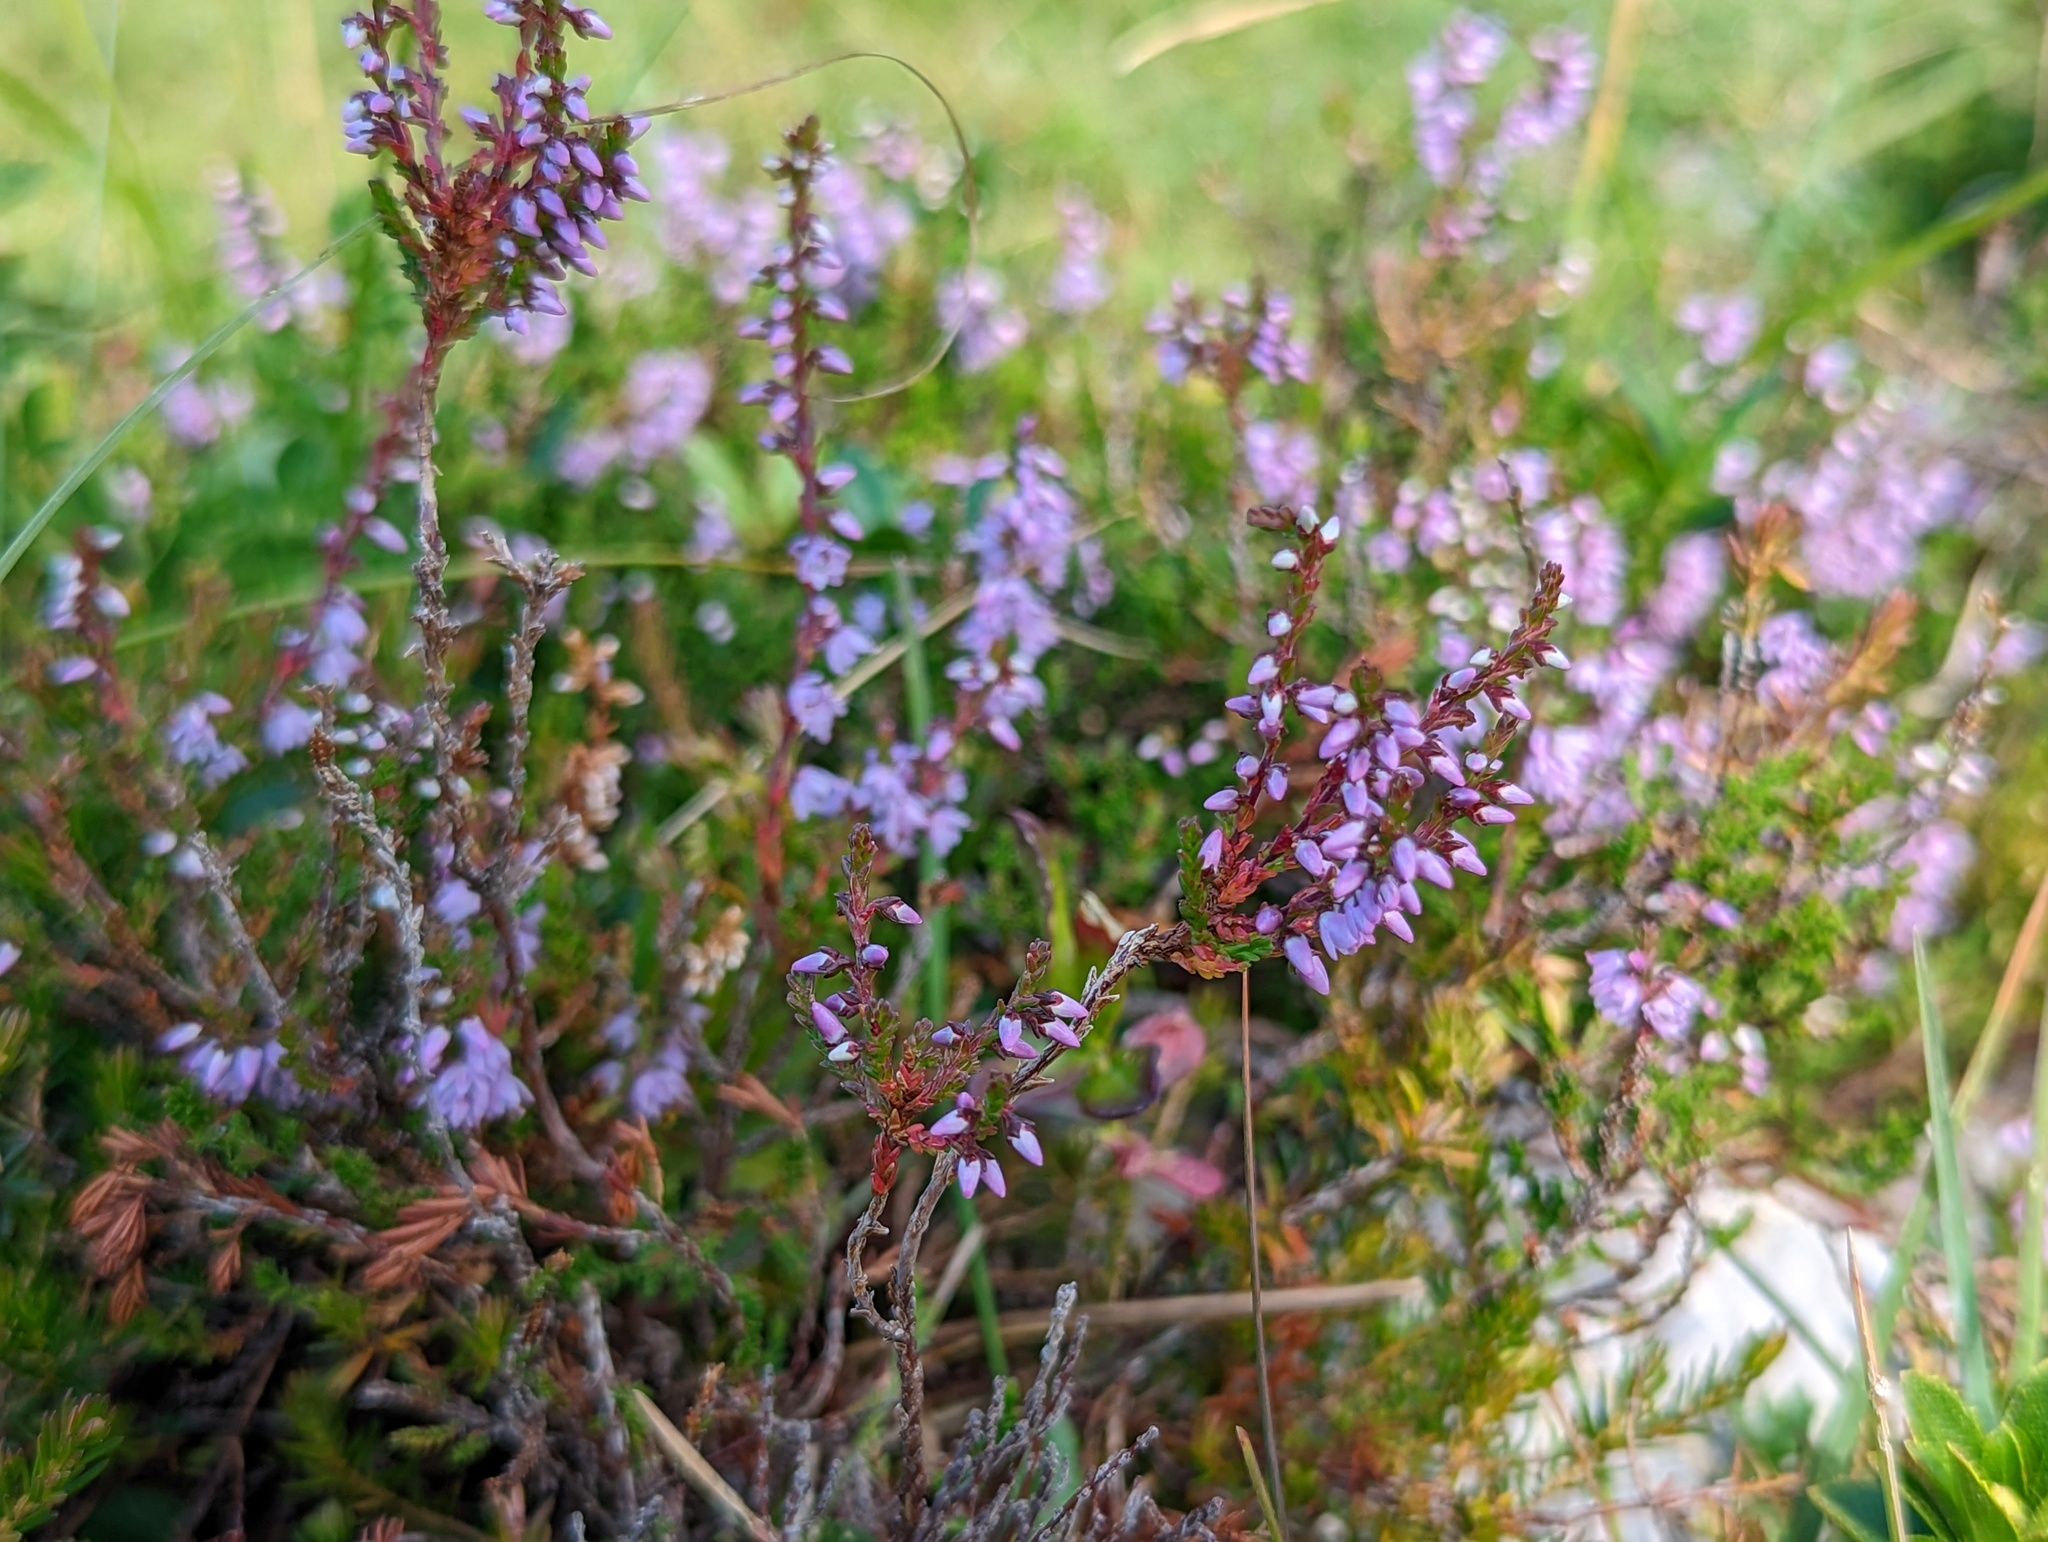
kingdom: Plantae
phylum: Tracheophyta
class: Magnoliopsida
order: Ericales
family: Ericaceae
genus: Calluna
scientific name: Calluna vulgaris
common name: Heather
